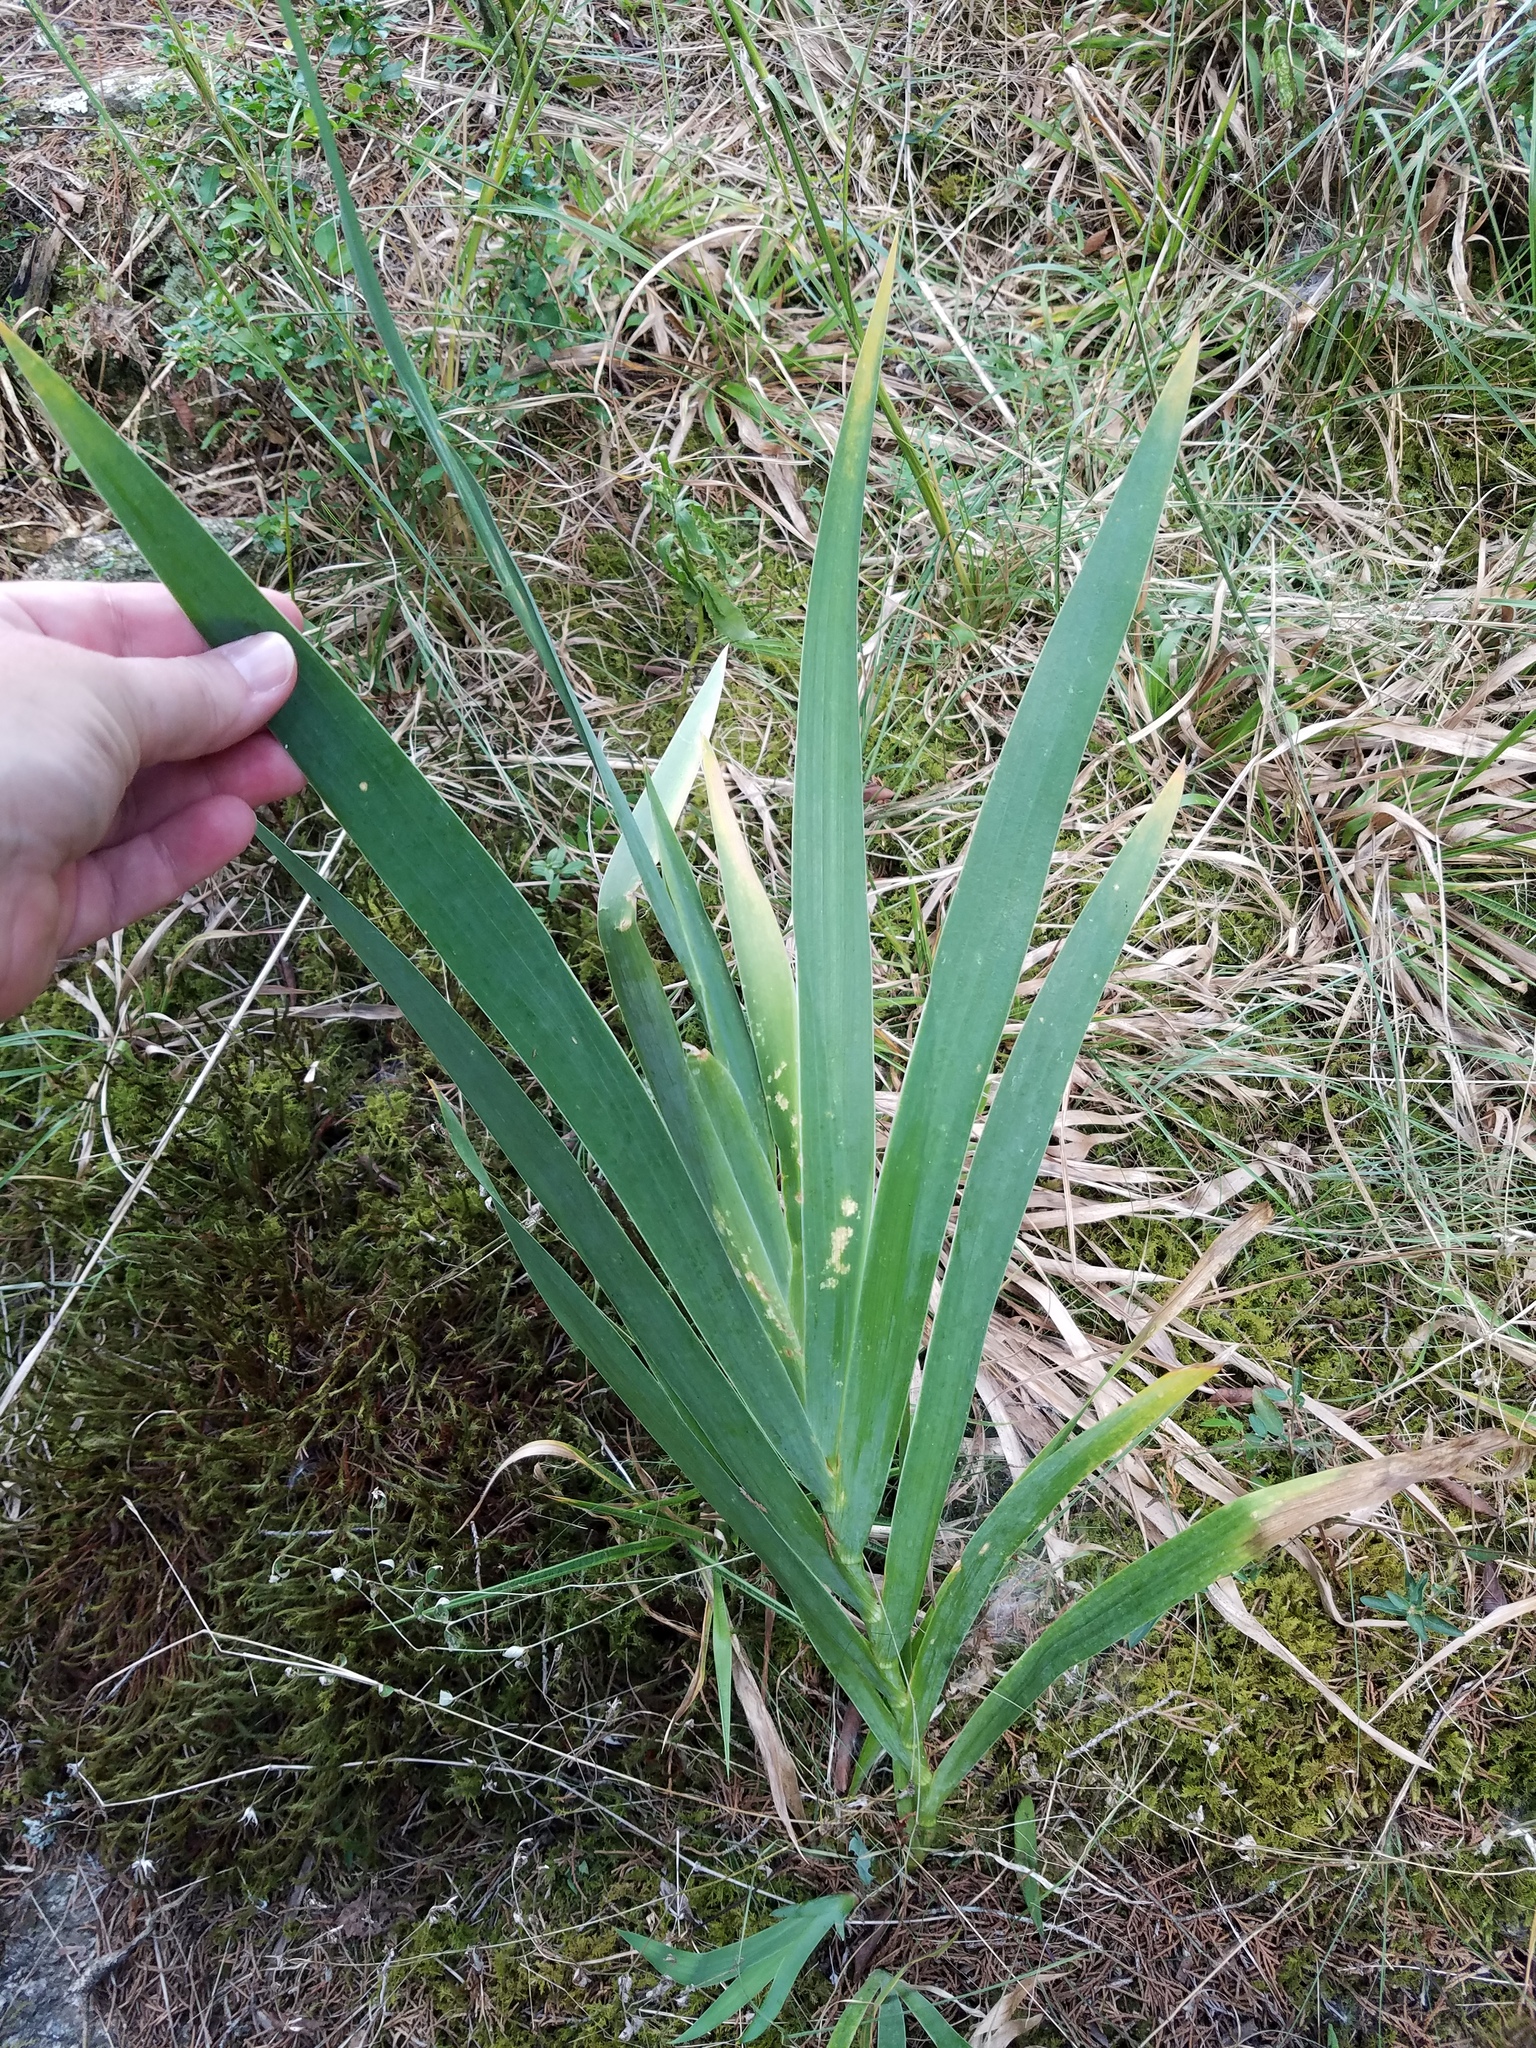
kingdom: Plantae
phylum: Tracheophyta
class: Liliopsida
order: Asparagales
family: Iridaceae
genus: Iris
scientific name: Iris domestica
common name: Belamcanda
